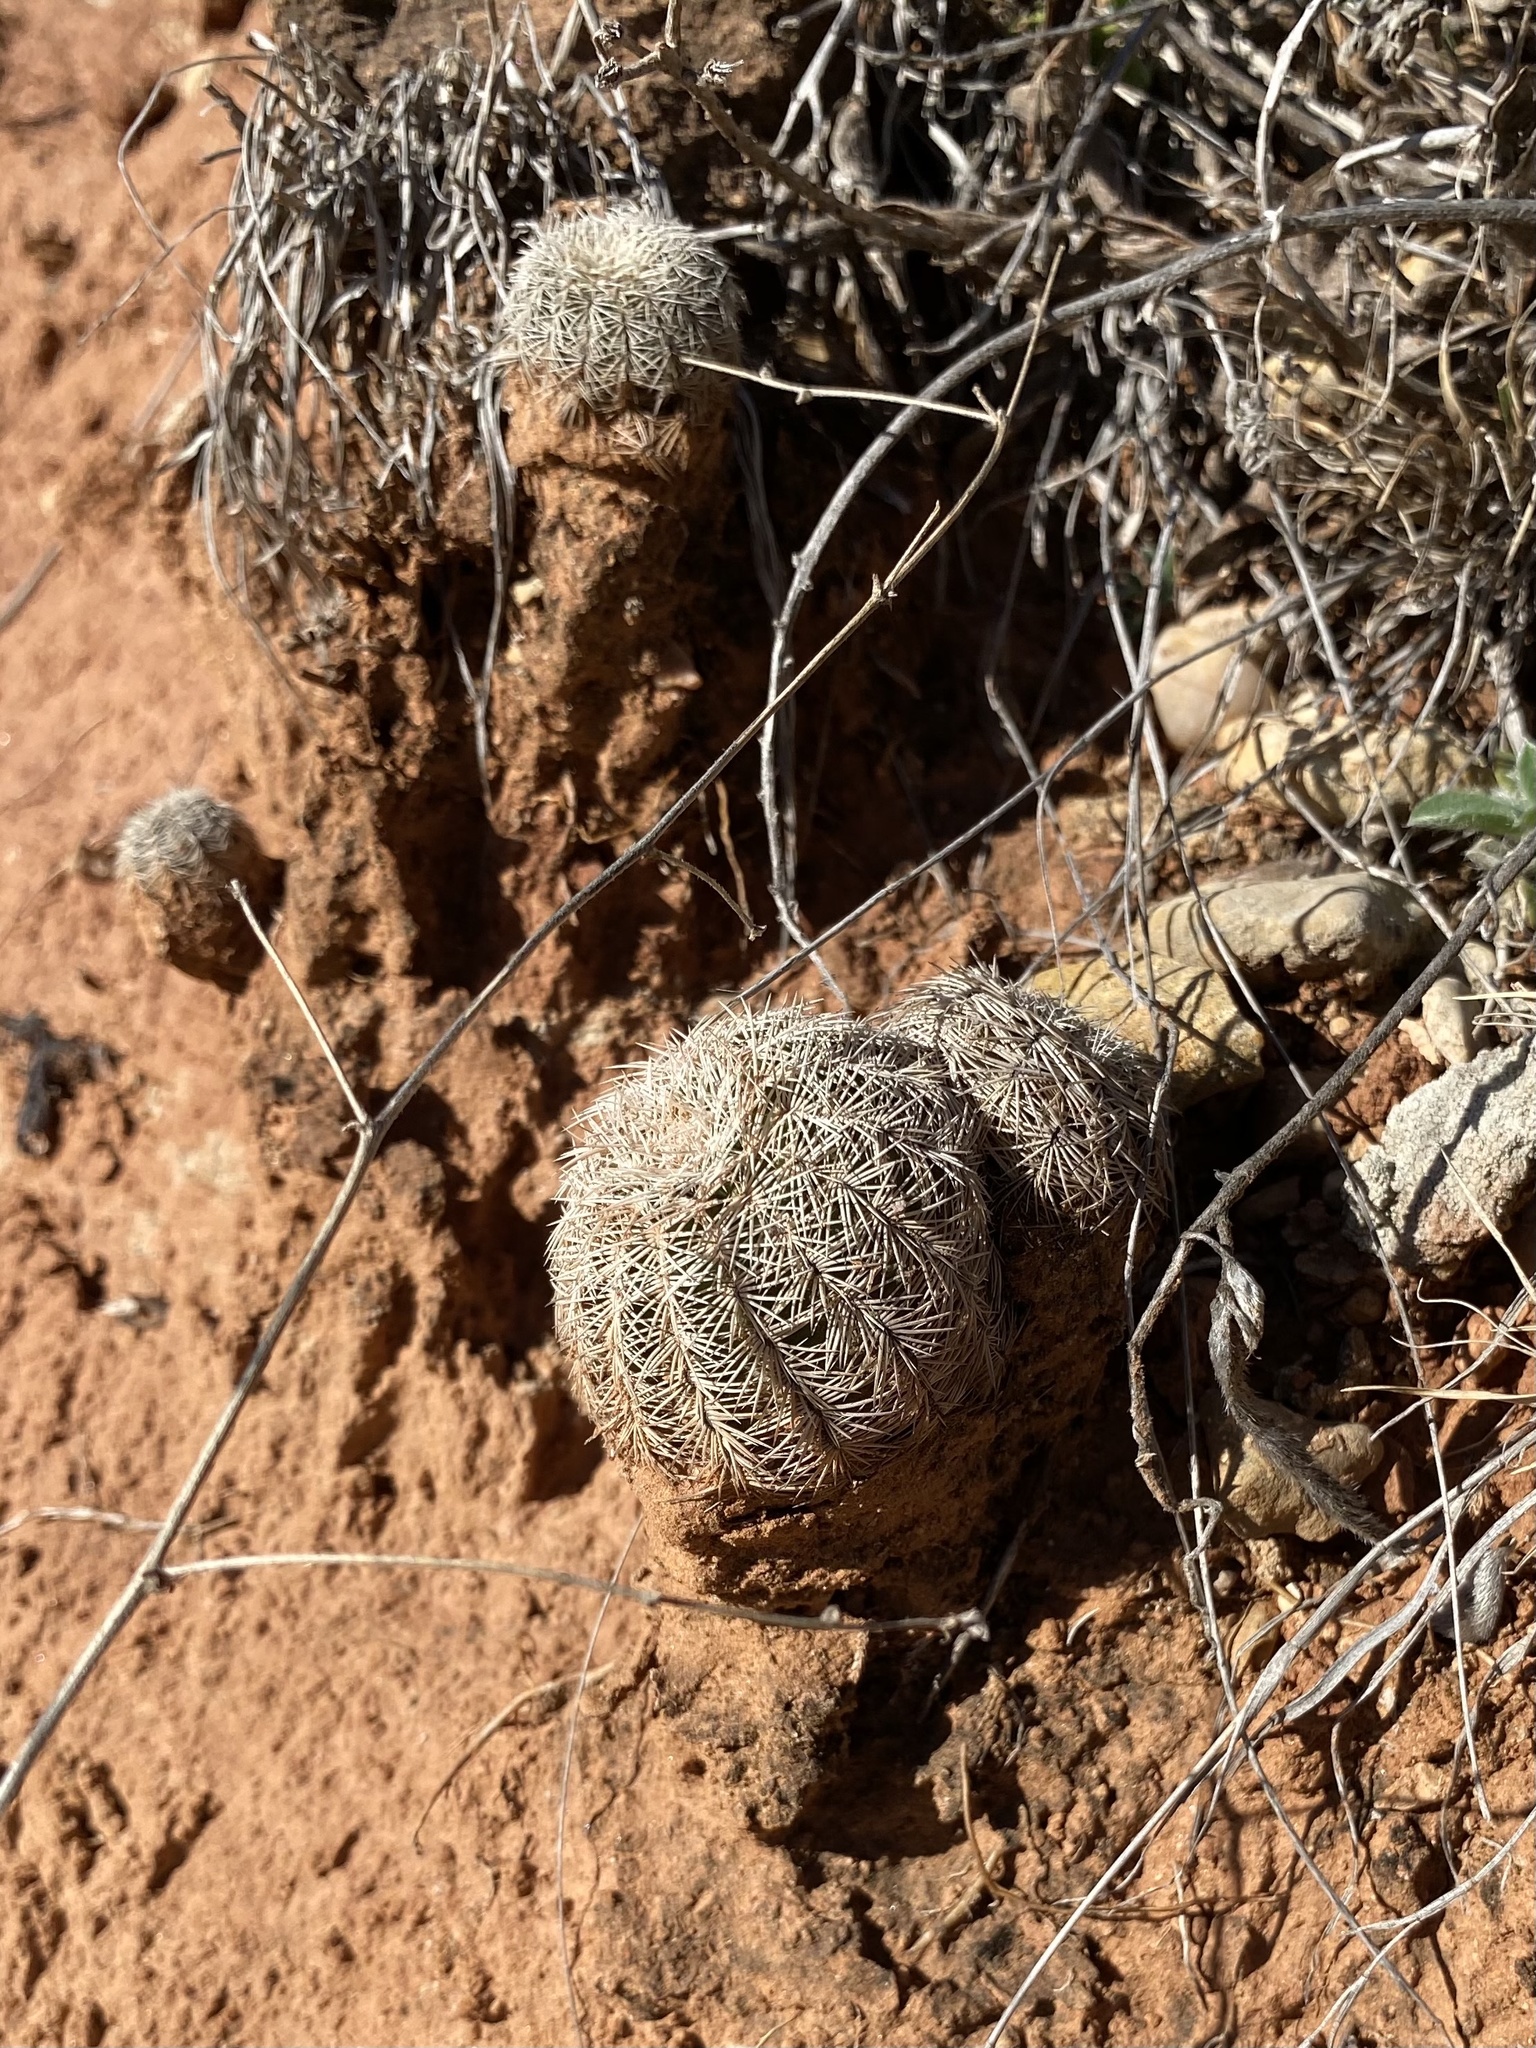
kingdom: Plantae
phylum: Tracheophyta
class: Magnoliopsida
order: Caryophyllales
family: Cactaceae
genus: Echinocereus
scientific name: Echinocereus reichenbachii
